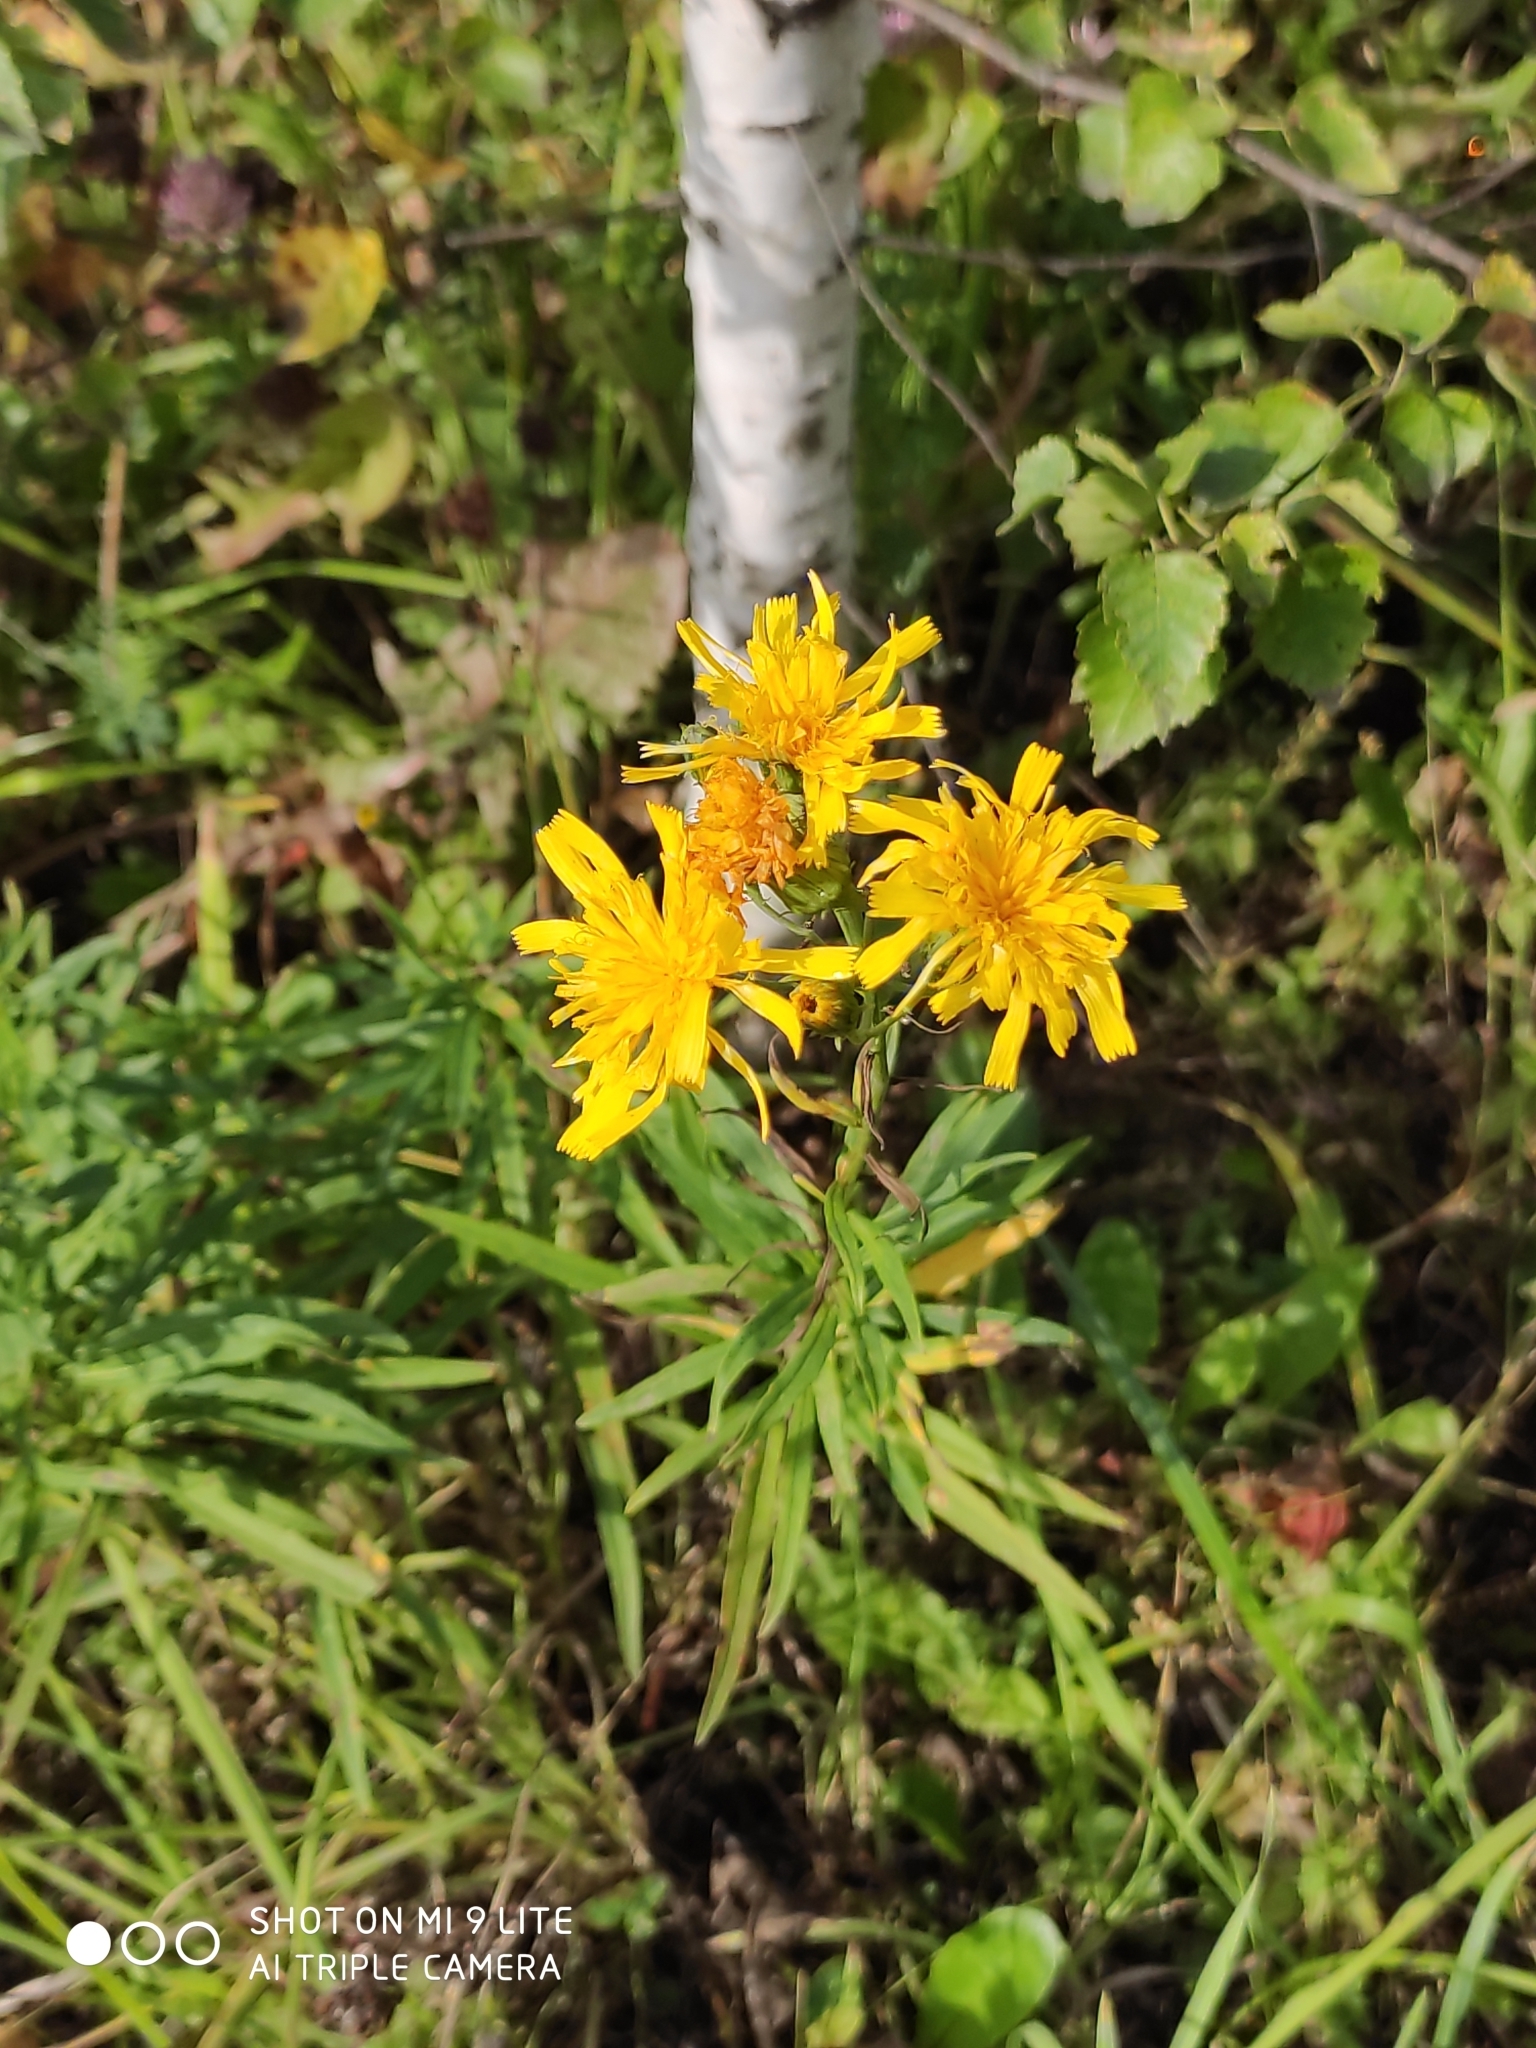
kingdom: Plantae
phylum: Tracheophyta
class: Magnoliopsida
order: Asterales
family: Asteraceae
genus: Hieracium
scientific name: Hieracium umbellatum
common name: Northern hawkweed
